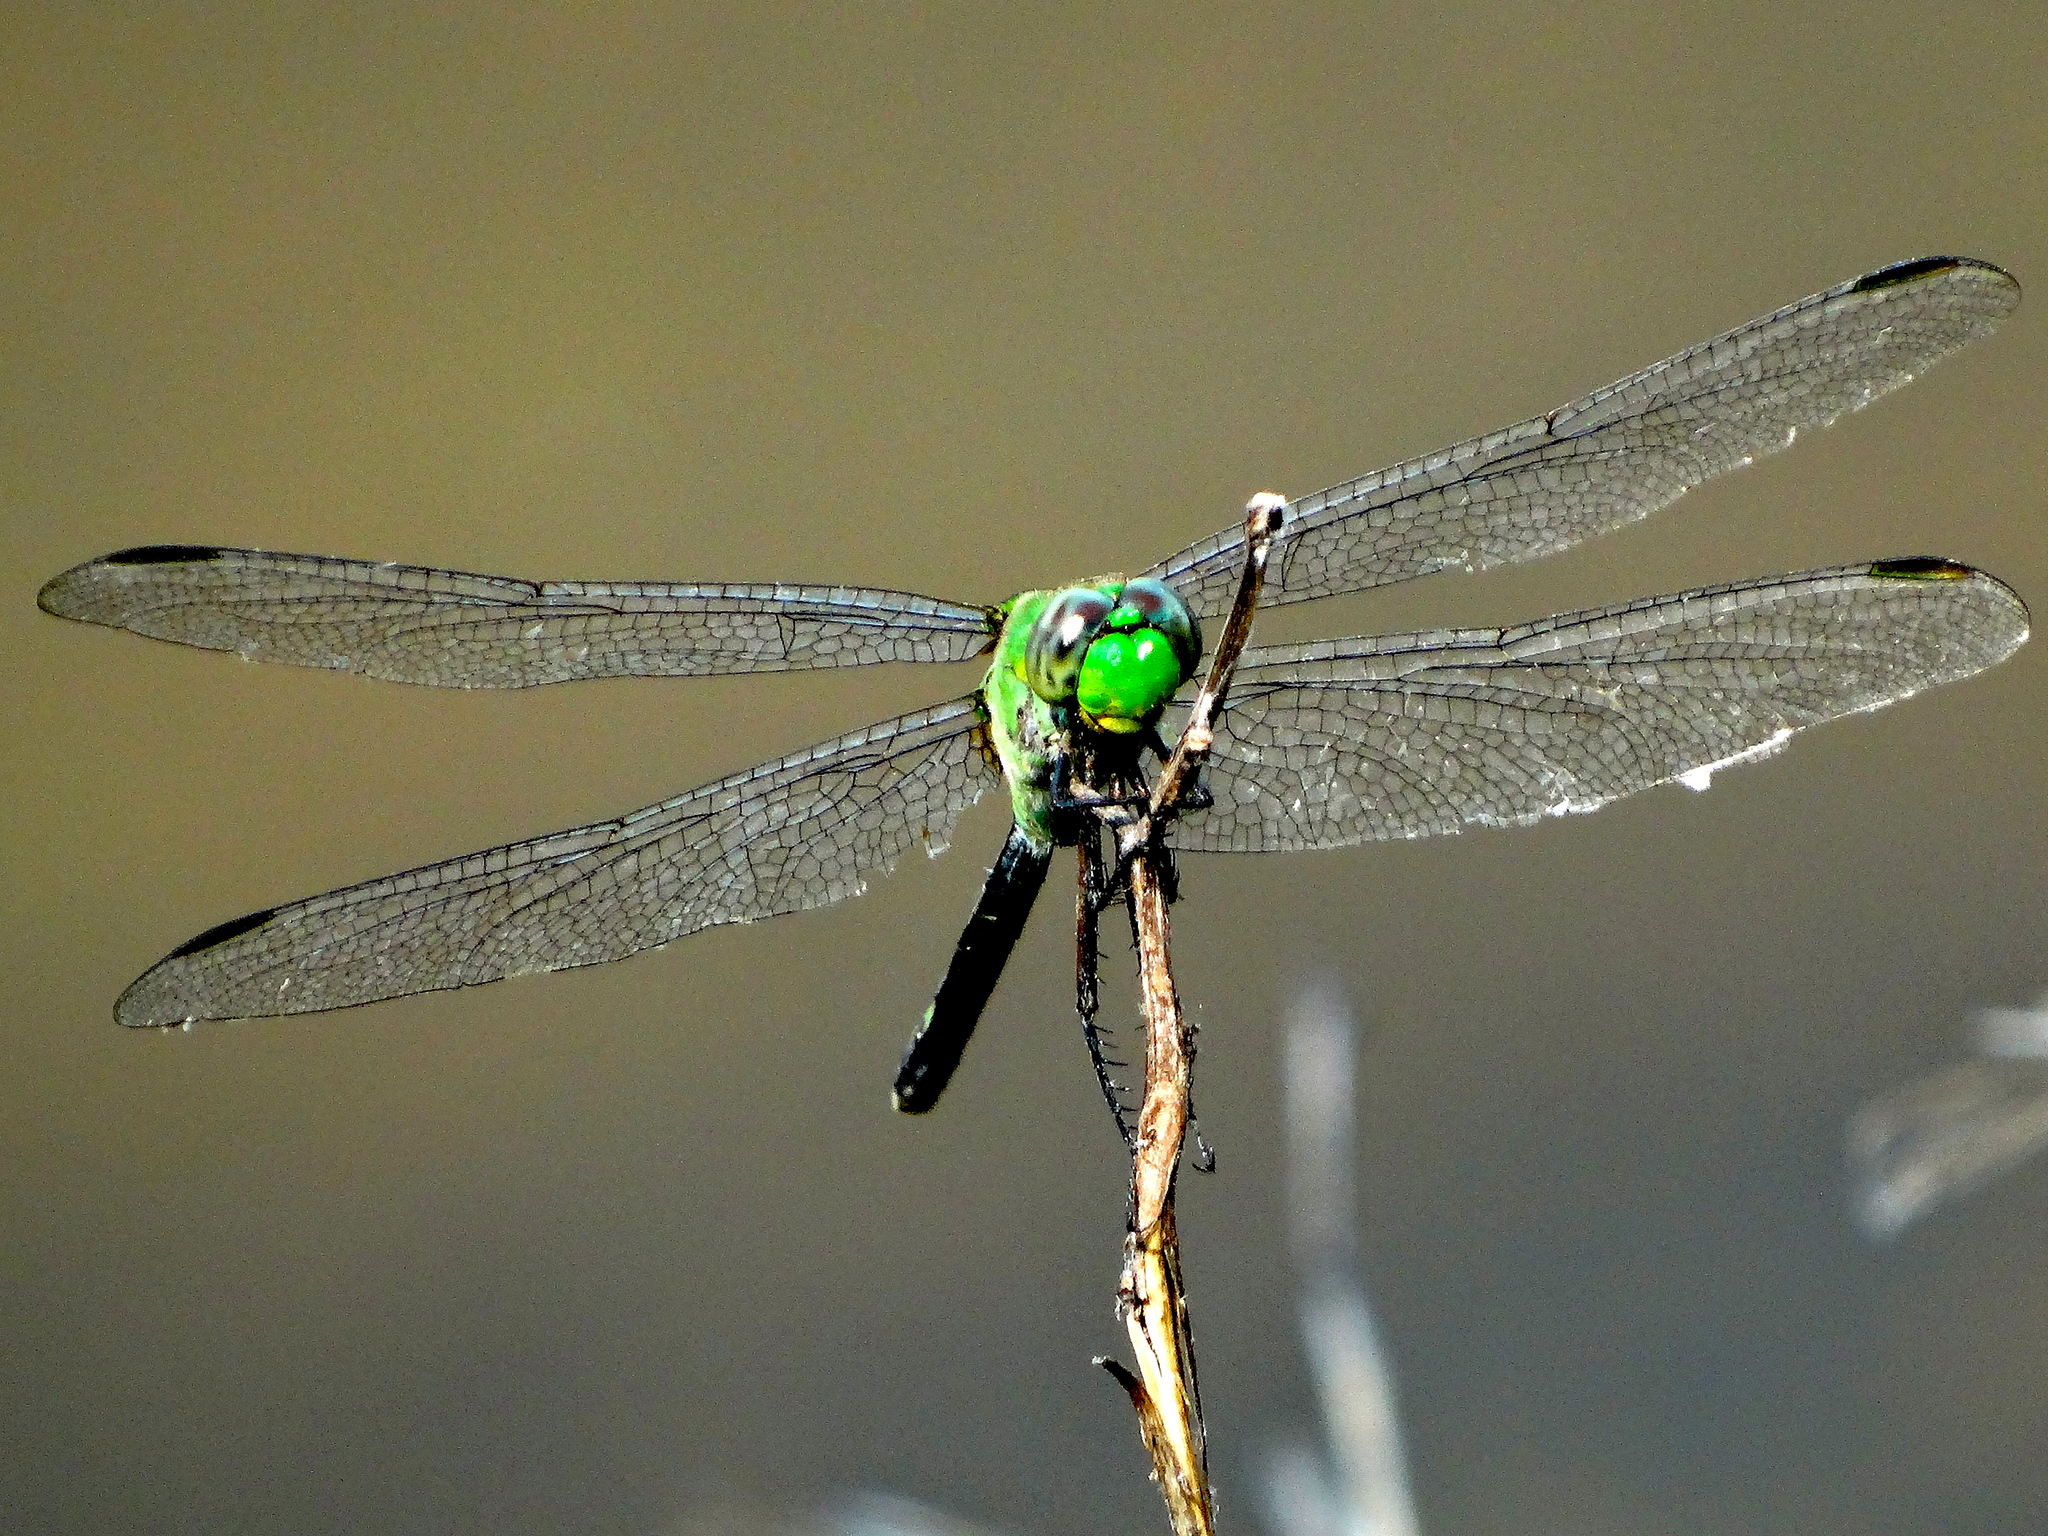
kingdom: Animalia
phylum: Arthropoda
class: Insecta
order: Odonata
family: Libellulidae
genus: Erythemis
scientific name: Erythemis vesiculosa
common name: Great pondhawk
